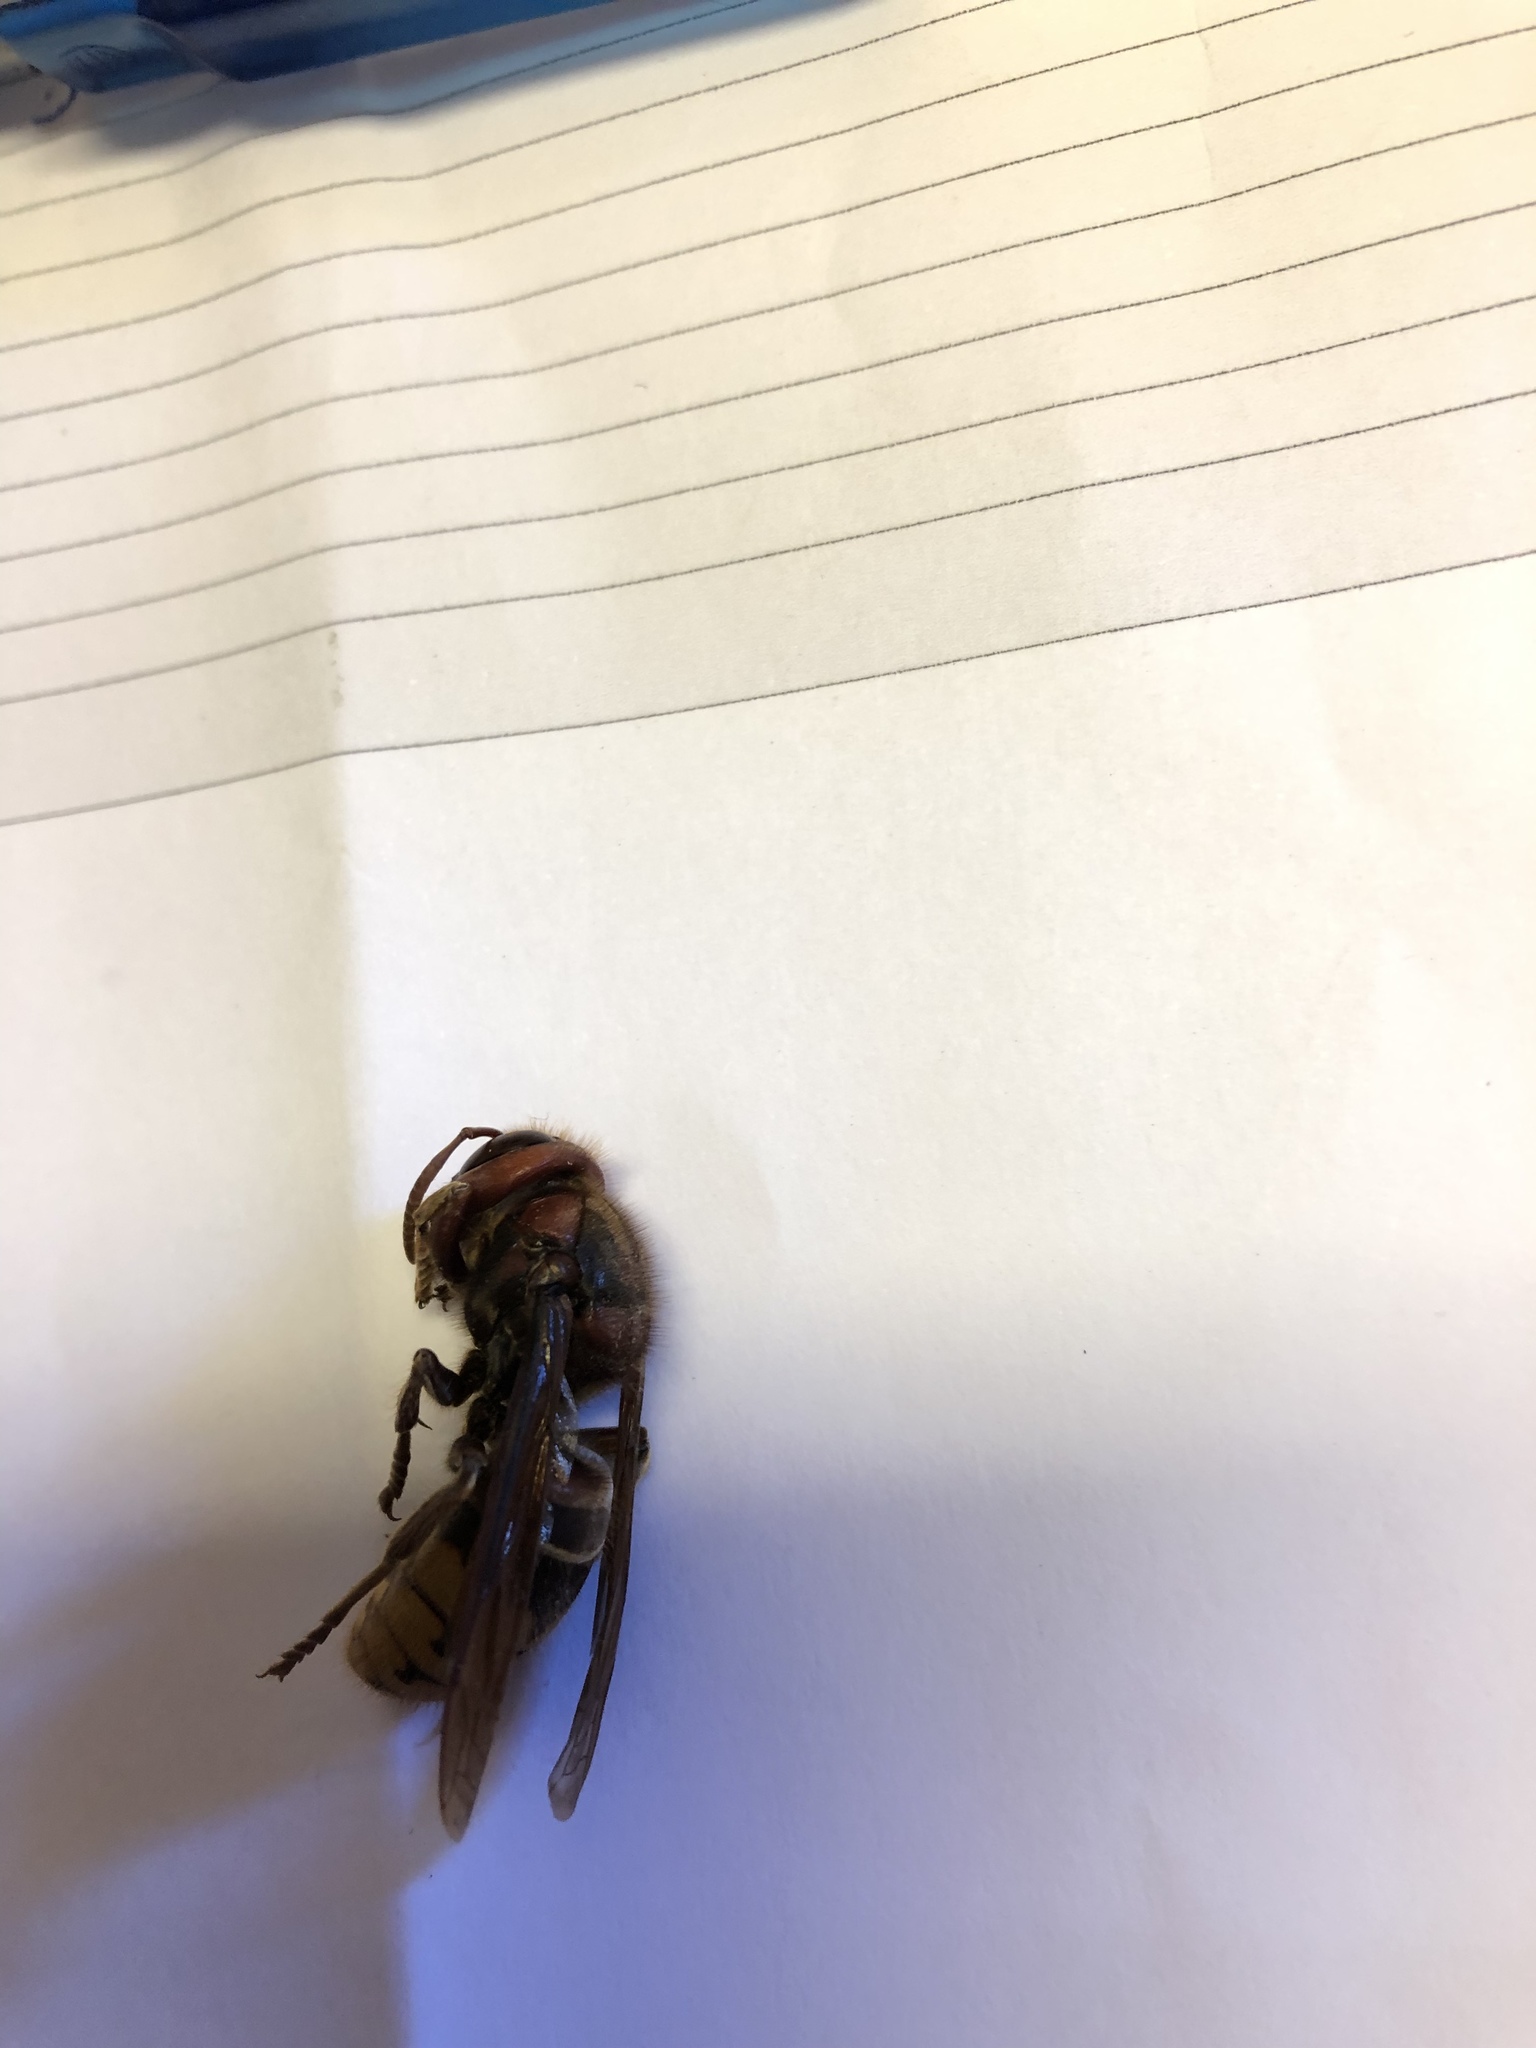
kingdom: Animalia
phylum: Arthropoda
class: Insecta
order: Hymenoptera
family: Vespidae
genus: Vespa
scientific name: Vespa crabro
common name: Hornet
